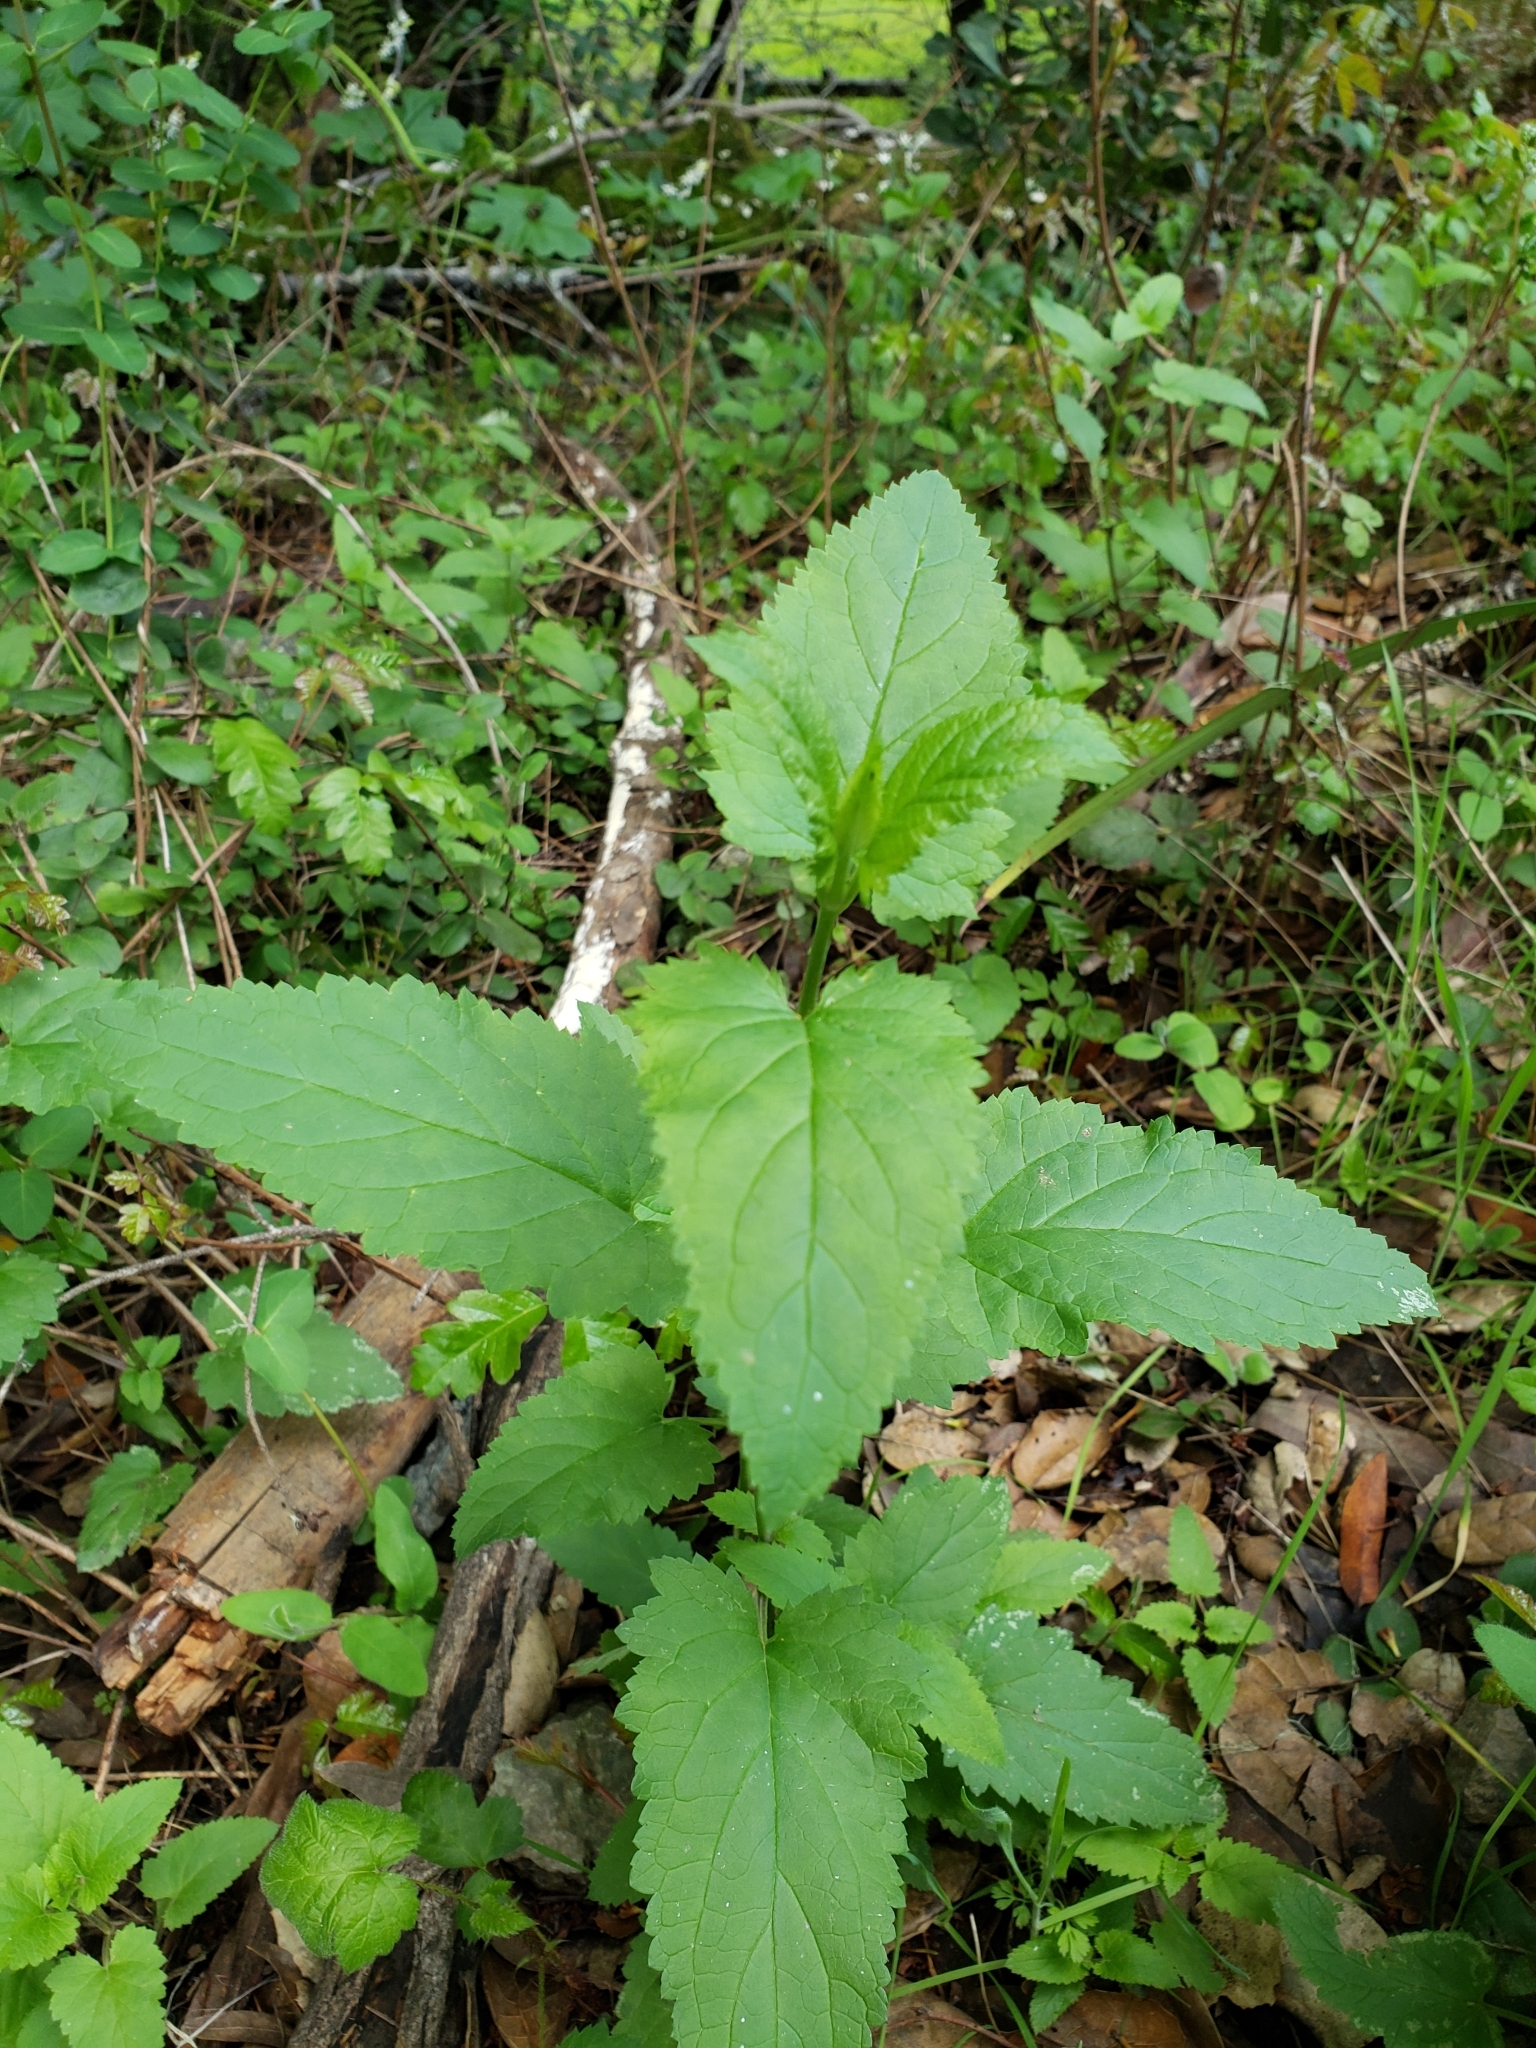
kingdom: Plantae
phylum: Tracheophyta
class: Magnoliopsida
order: Lamiales
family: Scrophulariaceae
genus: Scrophularia
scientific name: Scrophularia californica
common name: California figwort
